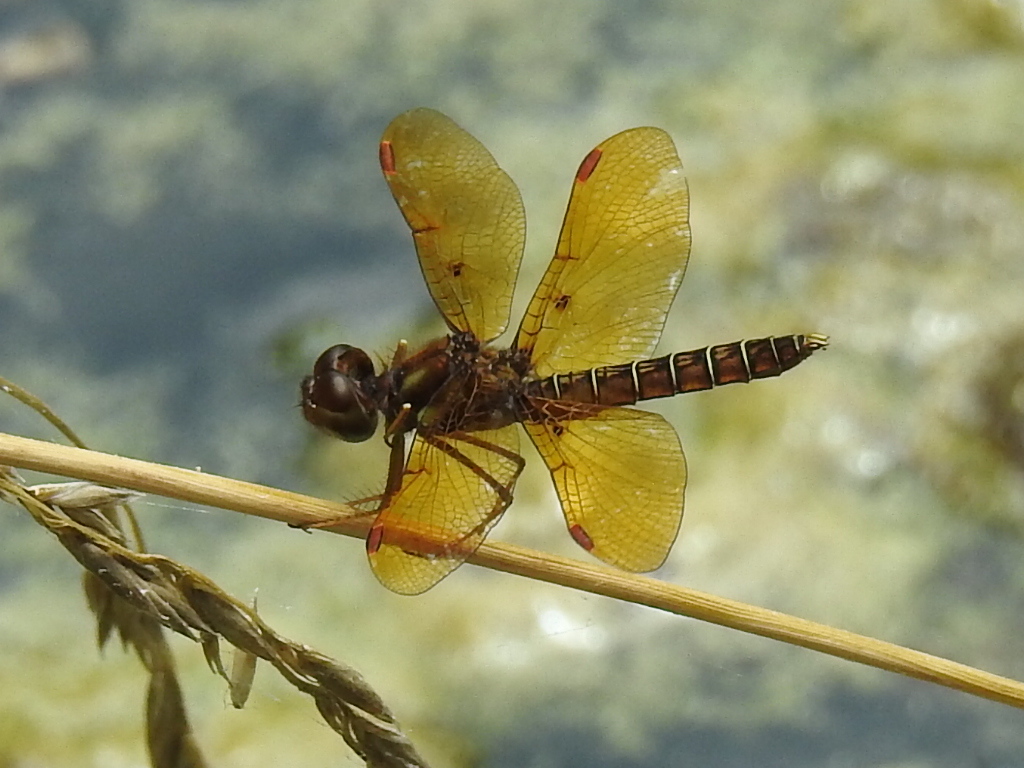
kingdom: Animalia
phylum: Arthropoda
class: Insecta
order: Odonata
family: Libellulidae
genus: Perithemis
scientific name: Perithemis tenera
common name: Eastern amberwing
